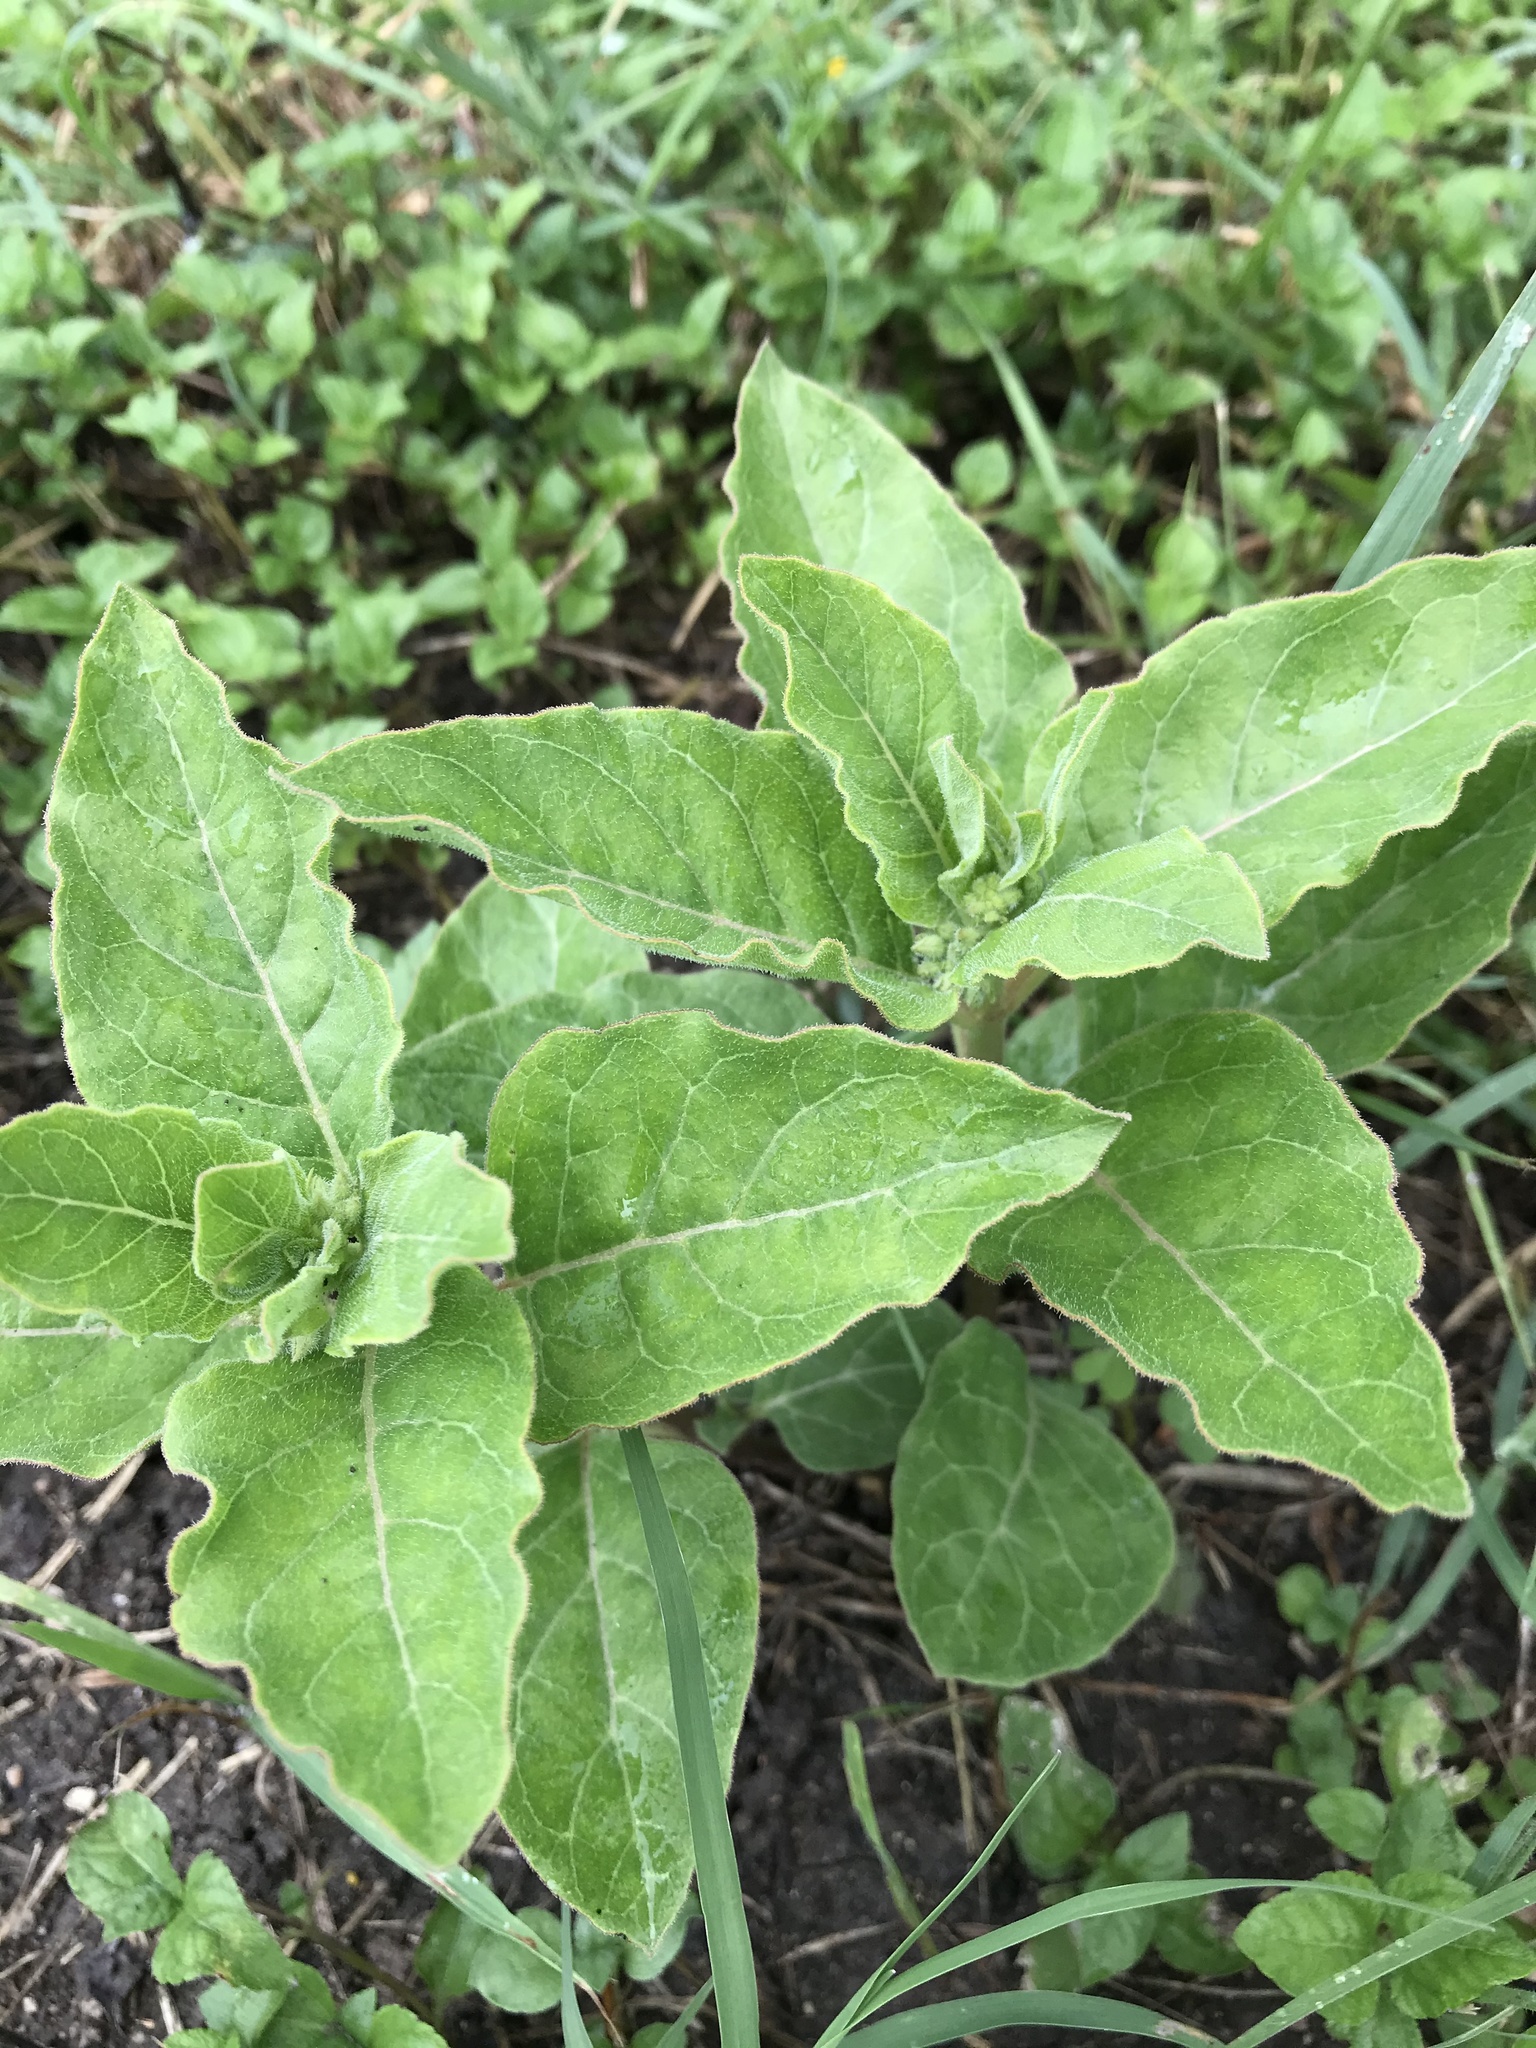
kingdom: Plantae
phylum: Tracheophyta
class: Magnoliopsida
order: Gentianales
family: Apocynaceae
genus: Asclepias
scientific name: Asclepias oenotheroides
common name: Zizotes milkweed
